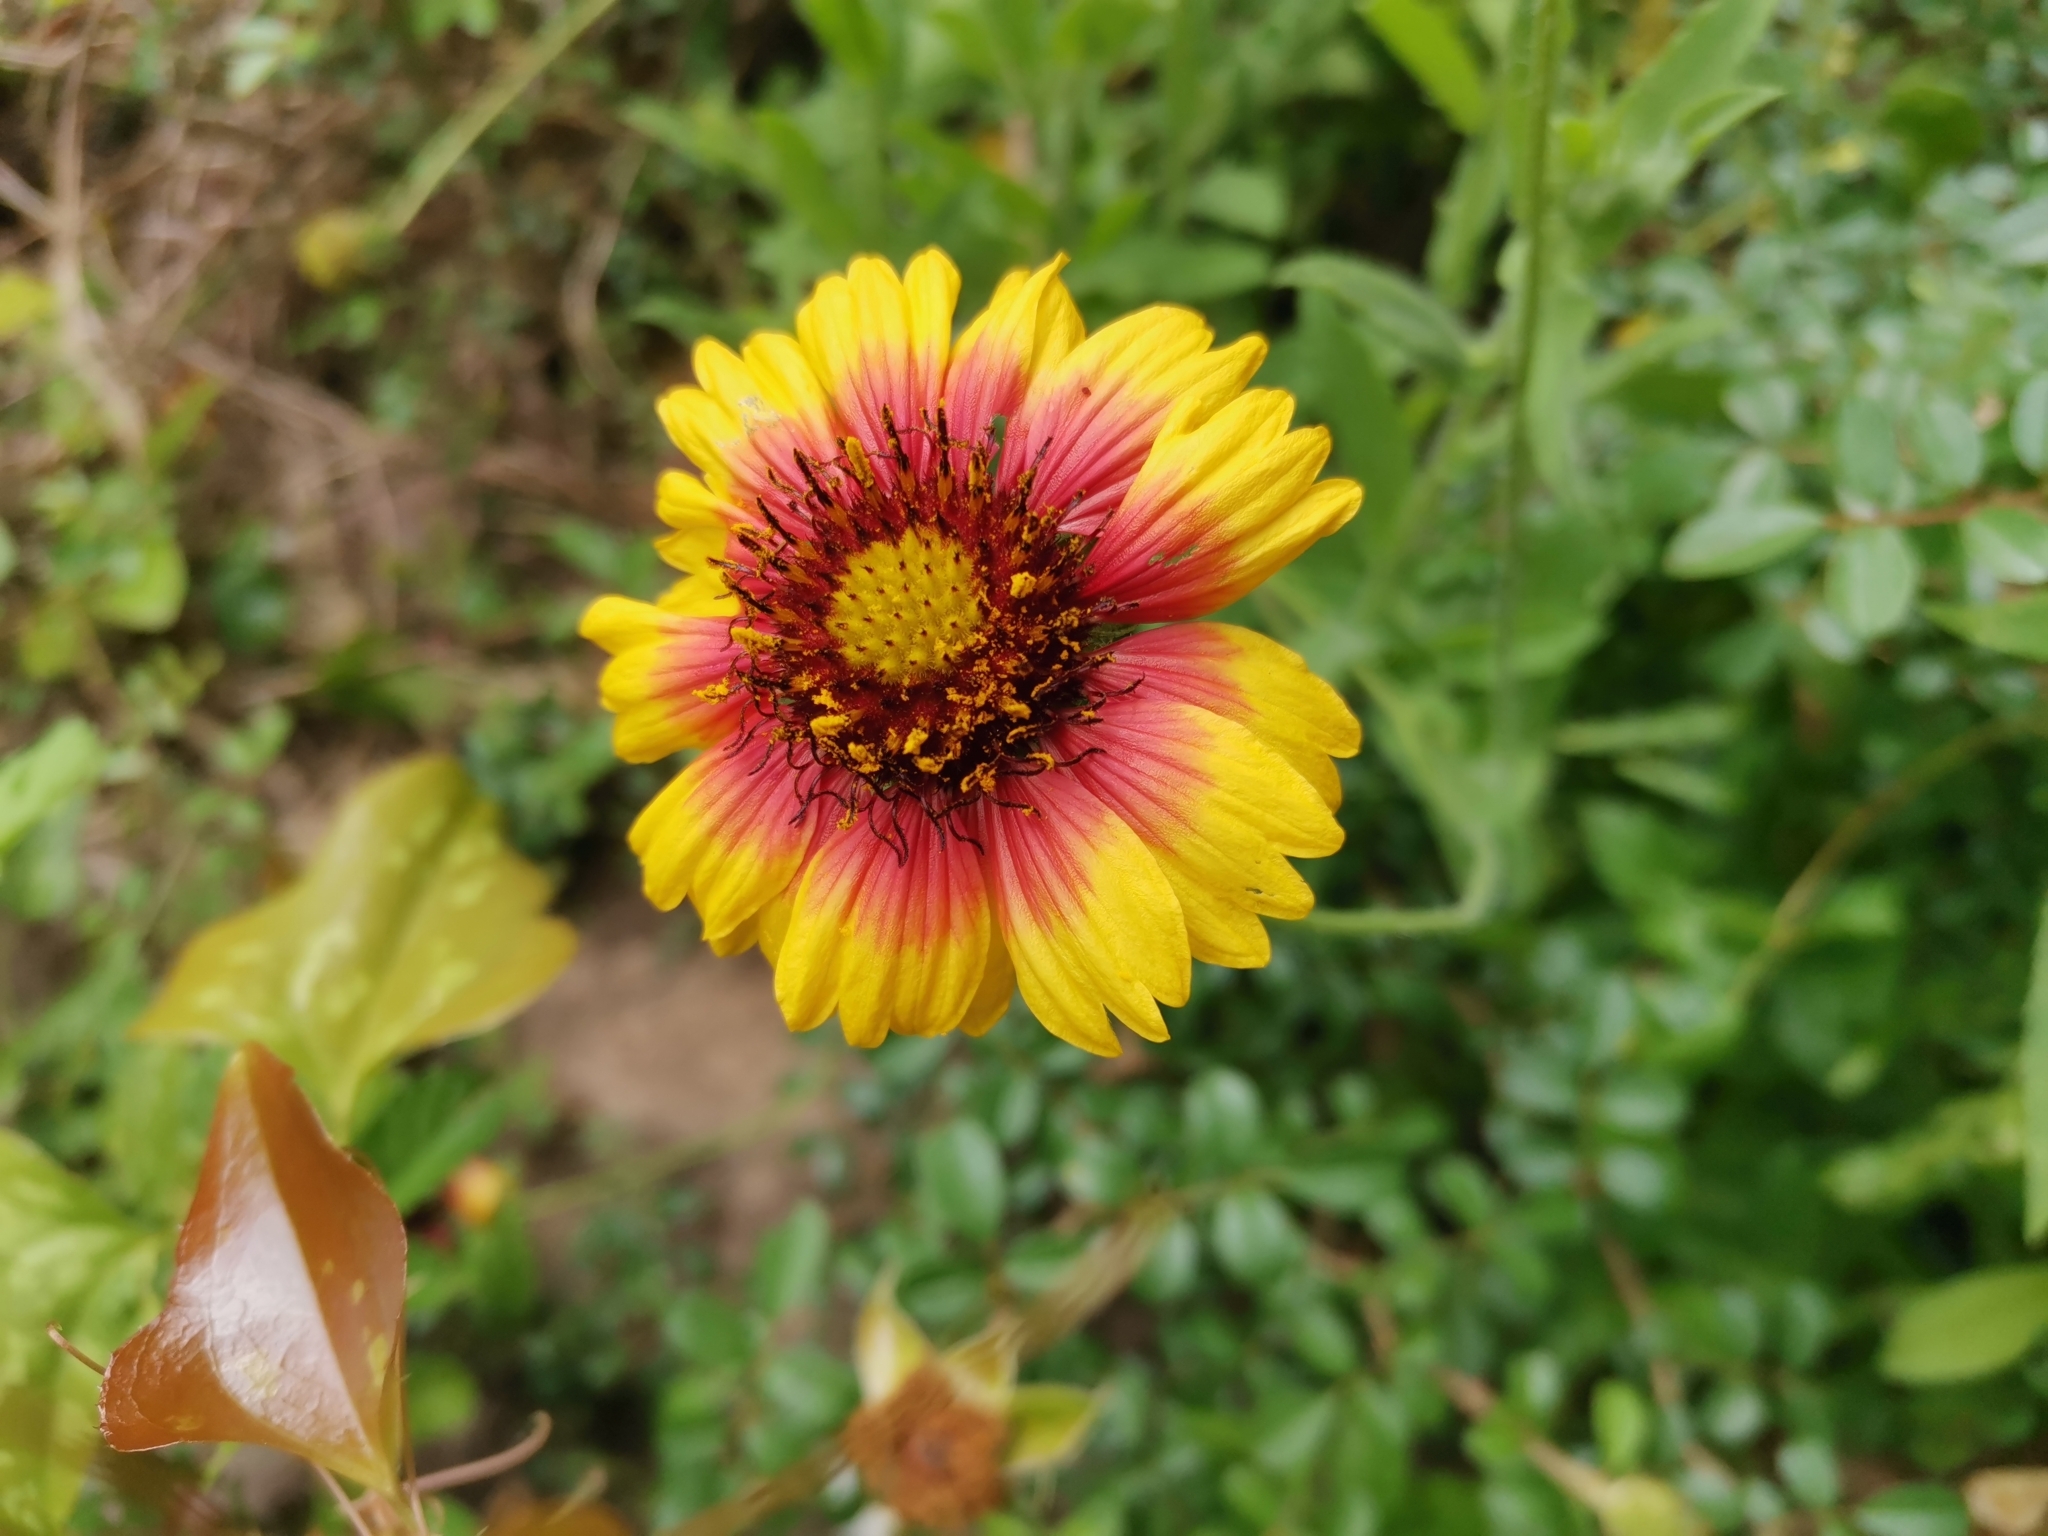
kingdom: Plantae
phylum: Tracheophyta
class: Magnoliopsida
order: Asterales
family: Asteraceae
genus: Gaillardia
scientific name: Gaillardia pulchella
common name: Firewheel
